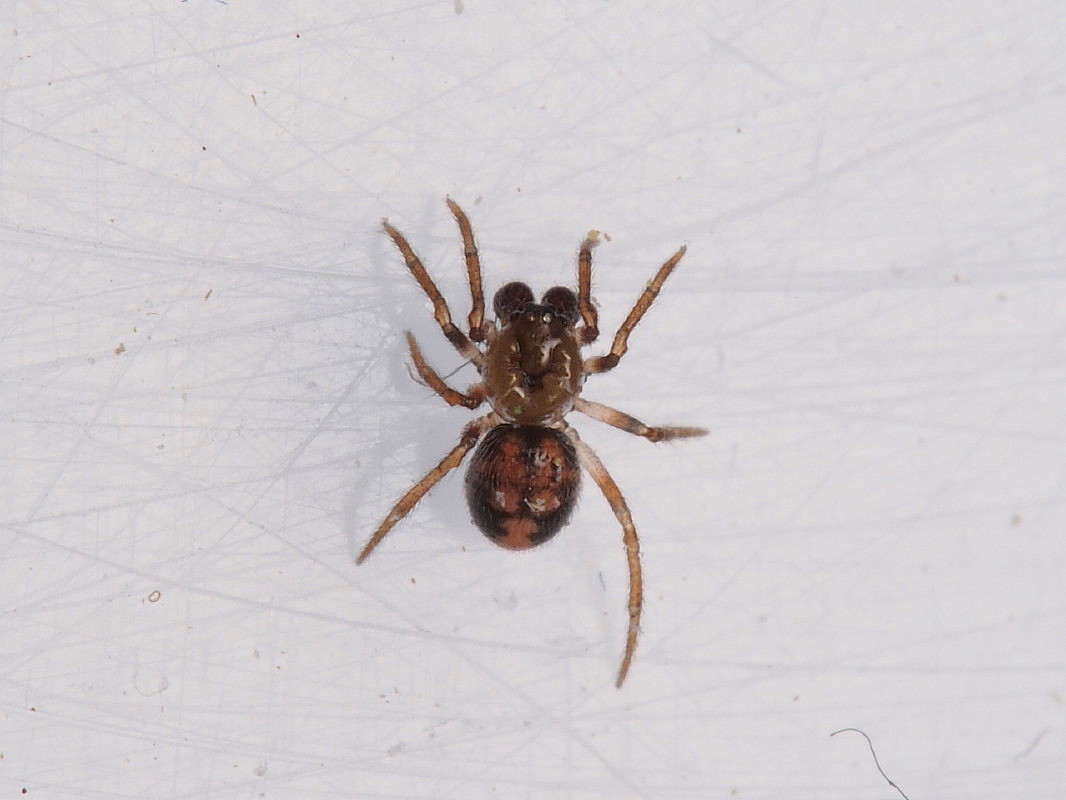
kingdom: Animalia
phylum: Arthropoda
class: Arachnida
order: Araneae
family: Theridiidae
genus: Phycosoma
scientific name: Phycosoma oecobioides
